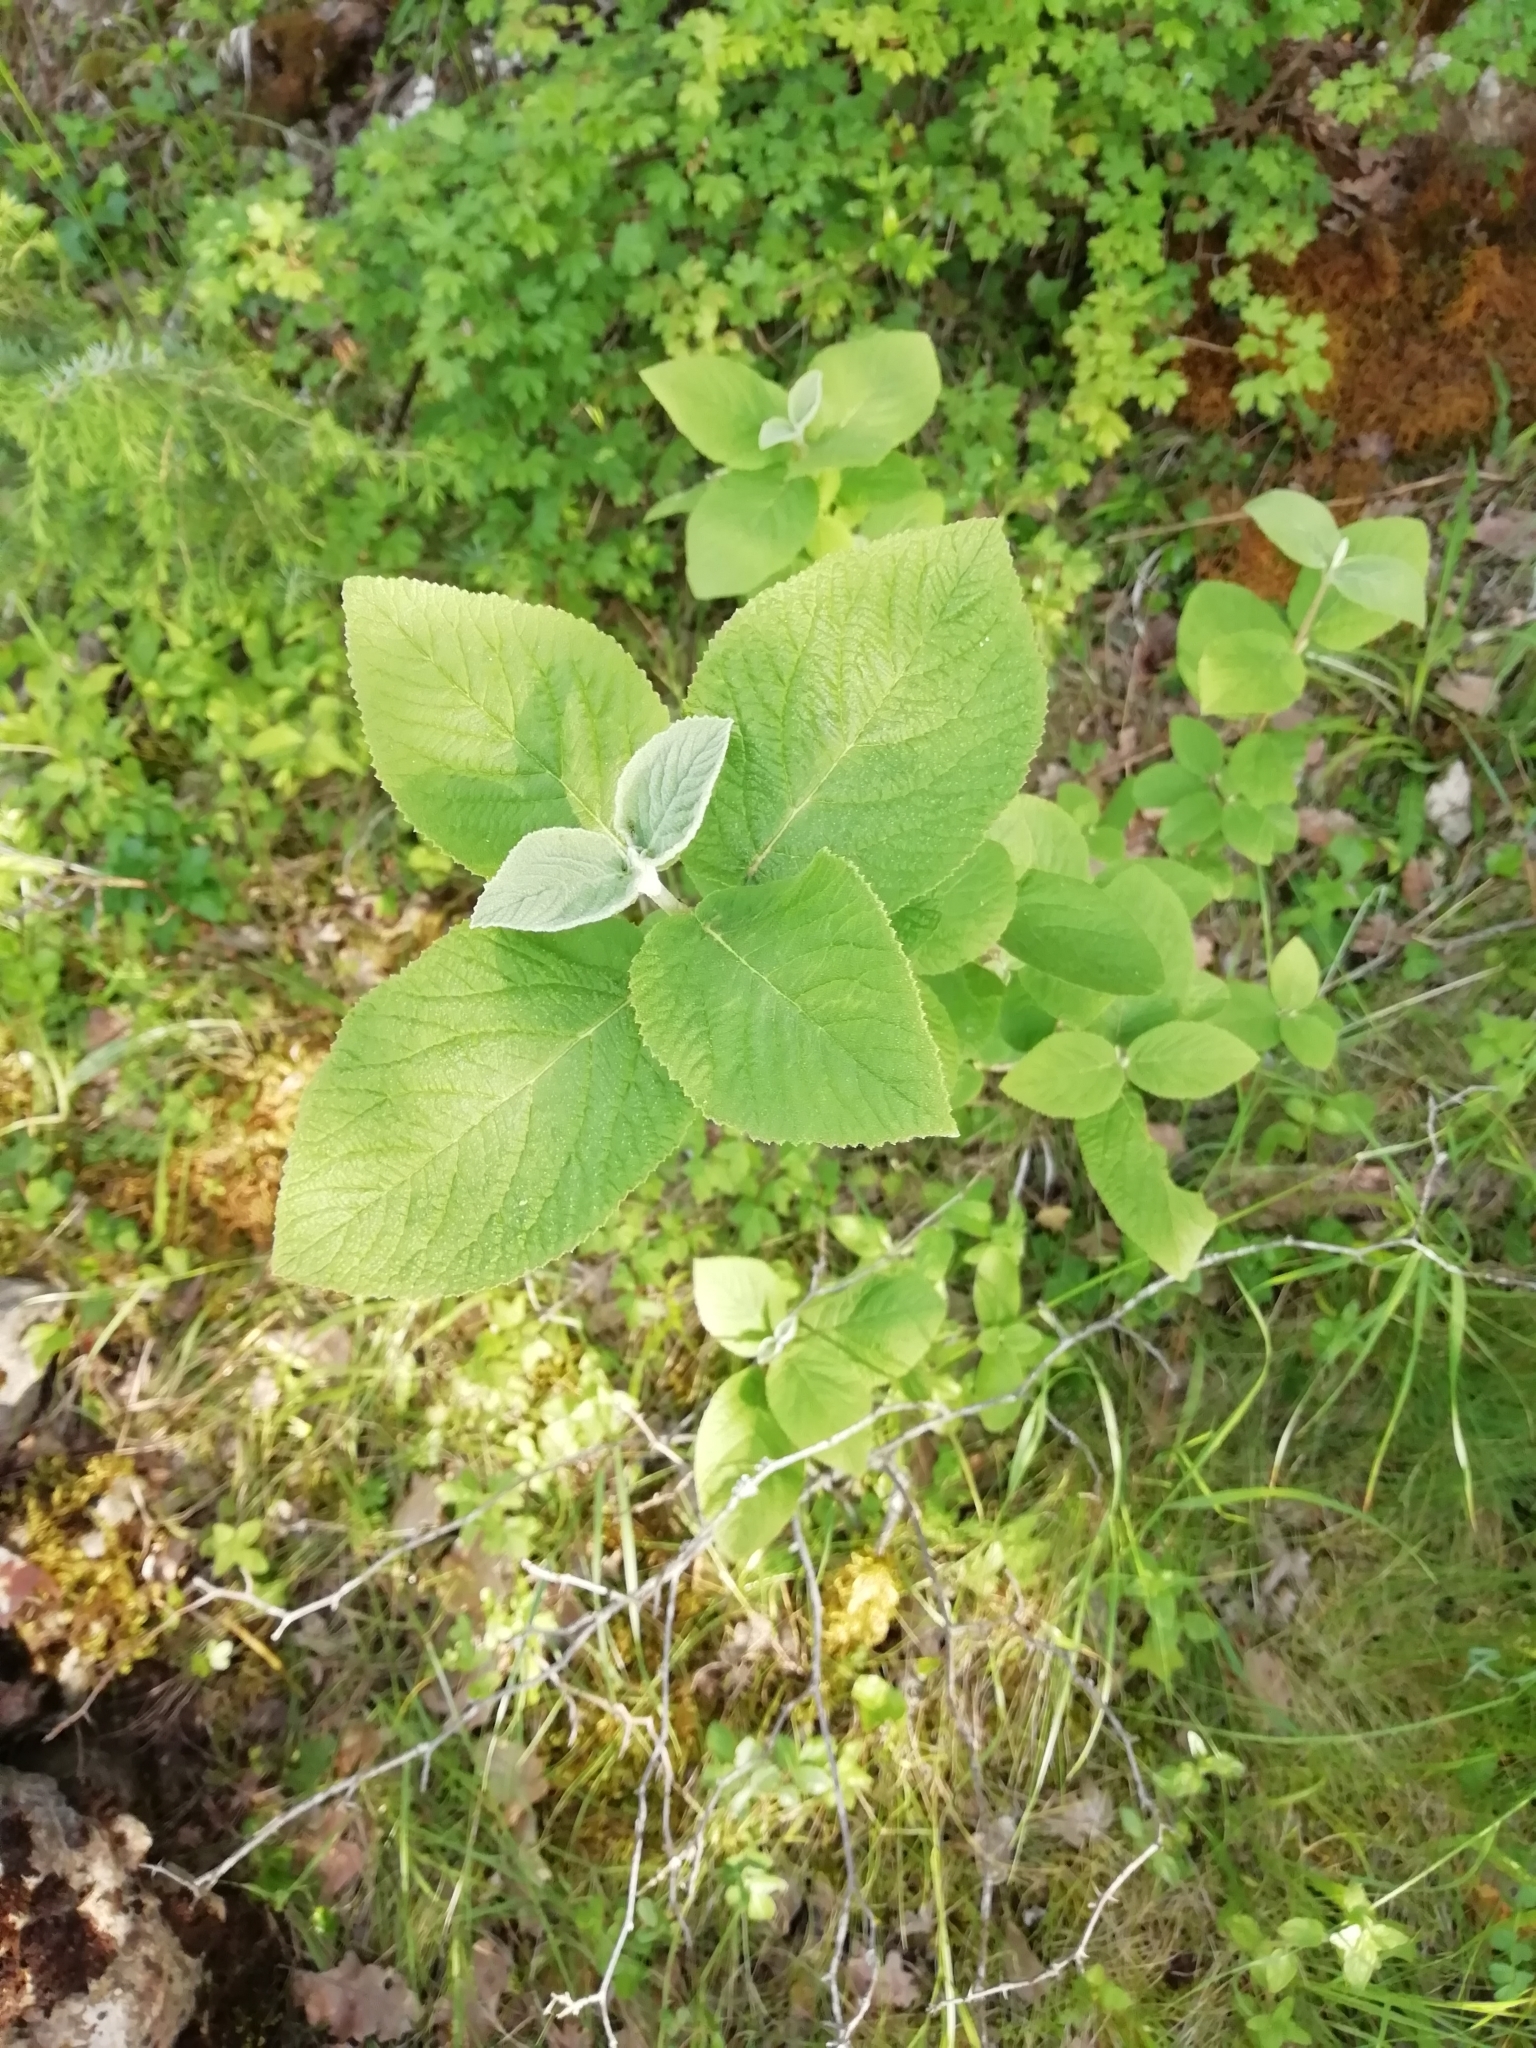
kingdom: Plantae
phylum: Tracheophyta
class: Magnoliopsida
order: Dipsacales
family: Viburnaceae
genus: Viburnum
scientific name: Viburnum lantana
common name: Wayfaring tree
